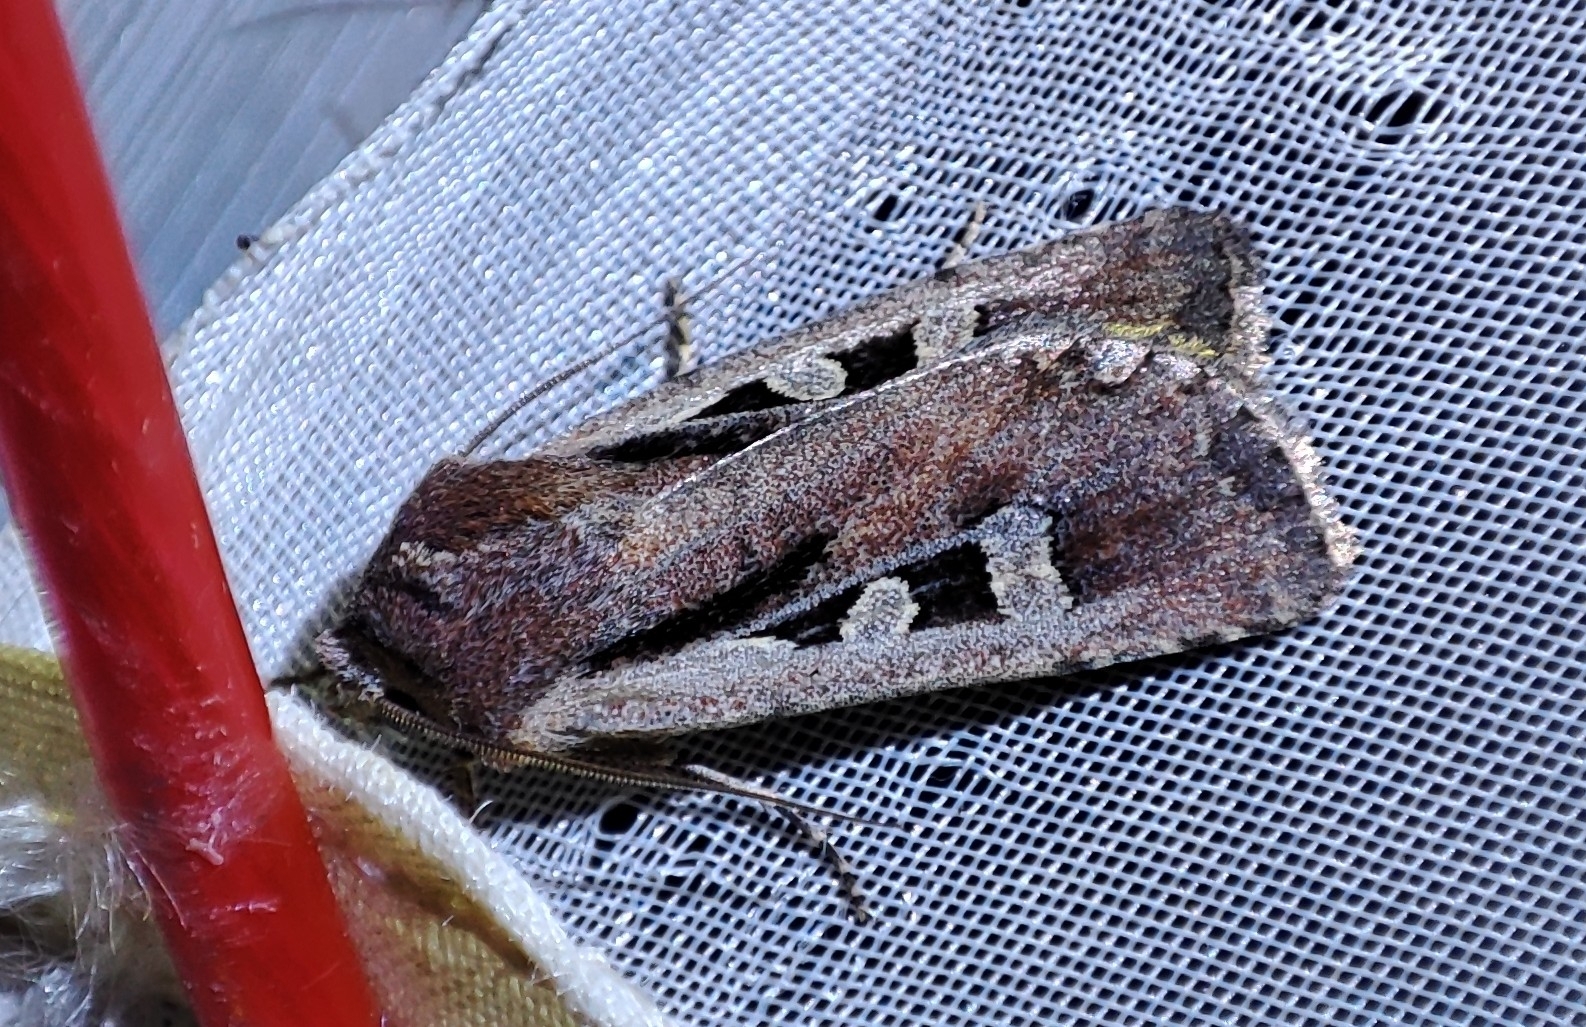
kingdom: Animalia
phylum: Arthropoda
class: Insecta
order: Lepidoptera
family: Noctuidae
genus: Euxoa
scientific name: Euxoa basigramma
